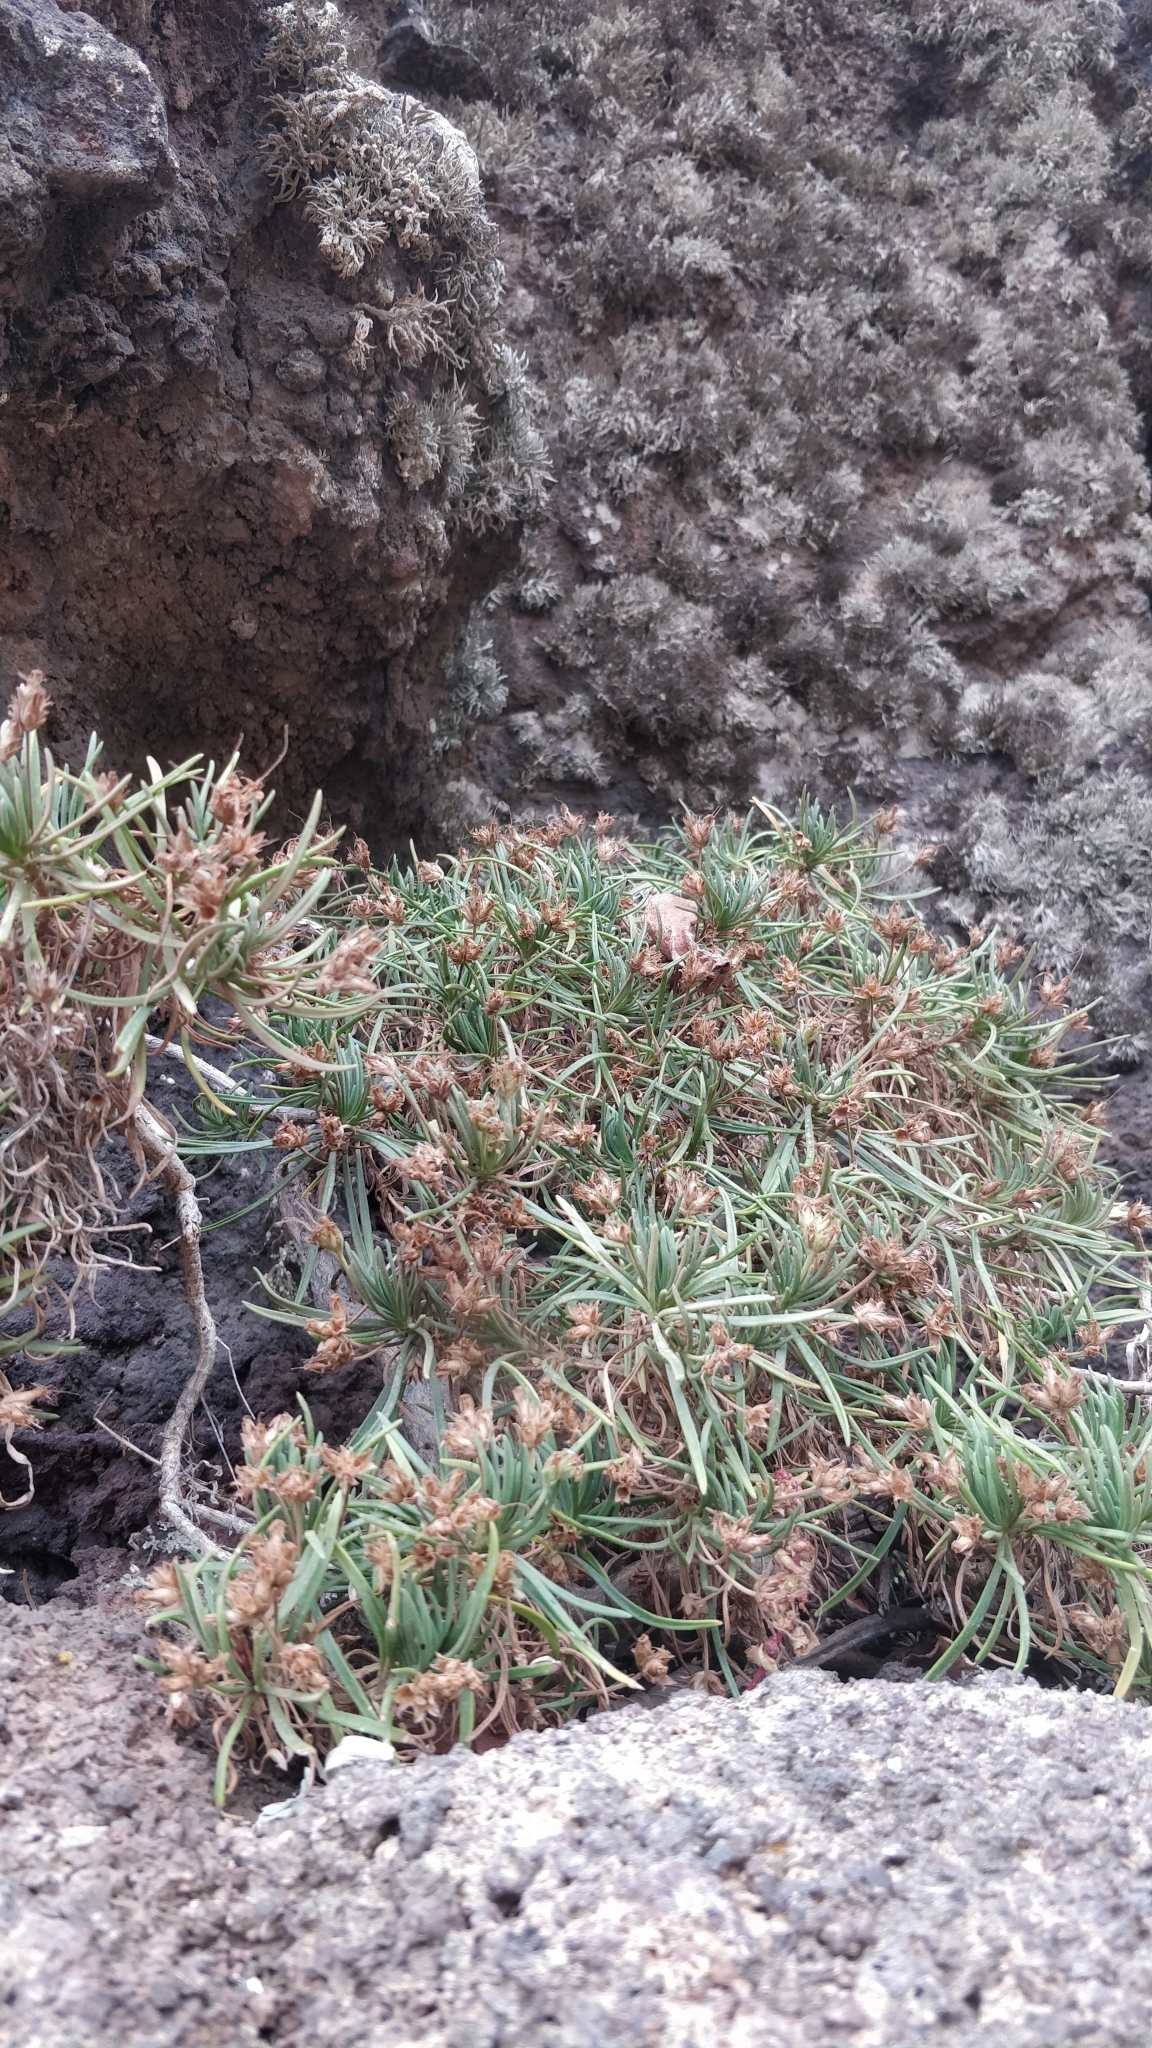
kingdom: Plantae
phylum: Tracheophyta
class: Magnoliopsida
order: Lamiales
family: Plantaginaceae
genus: Plantago
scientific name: Plantago arborescens
